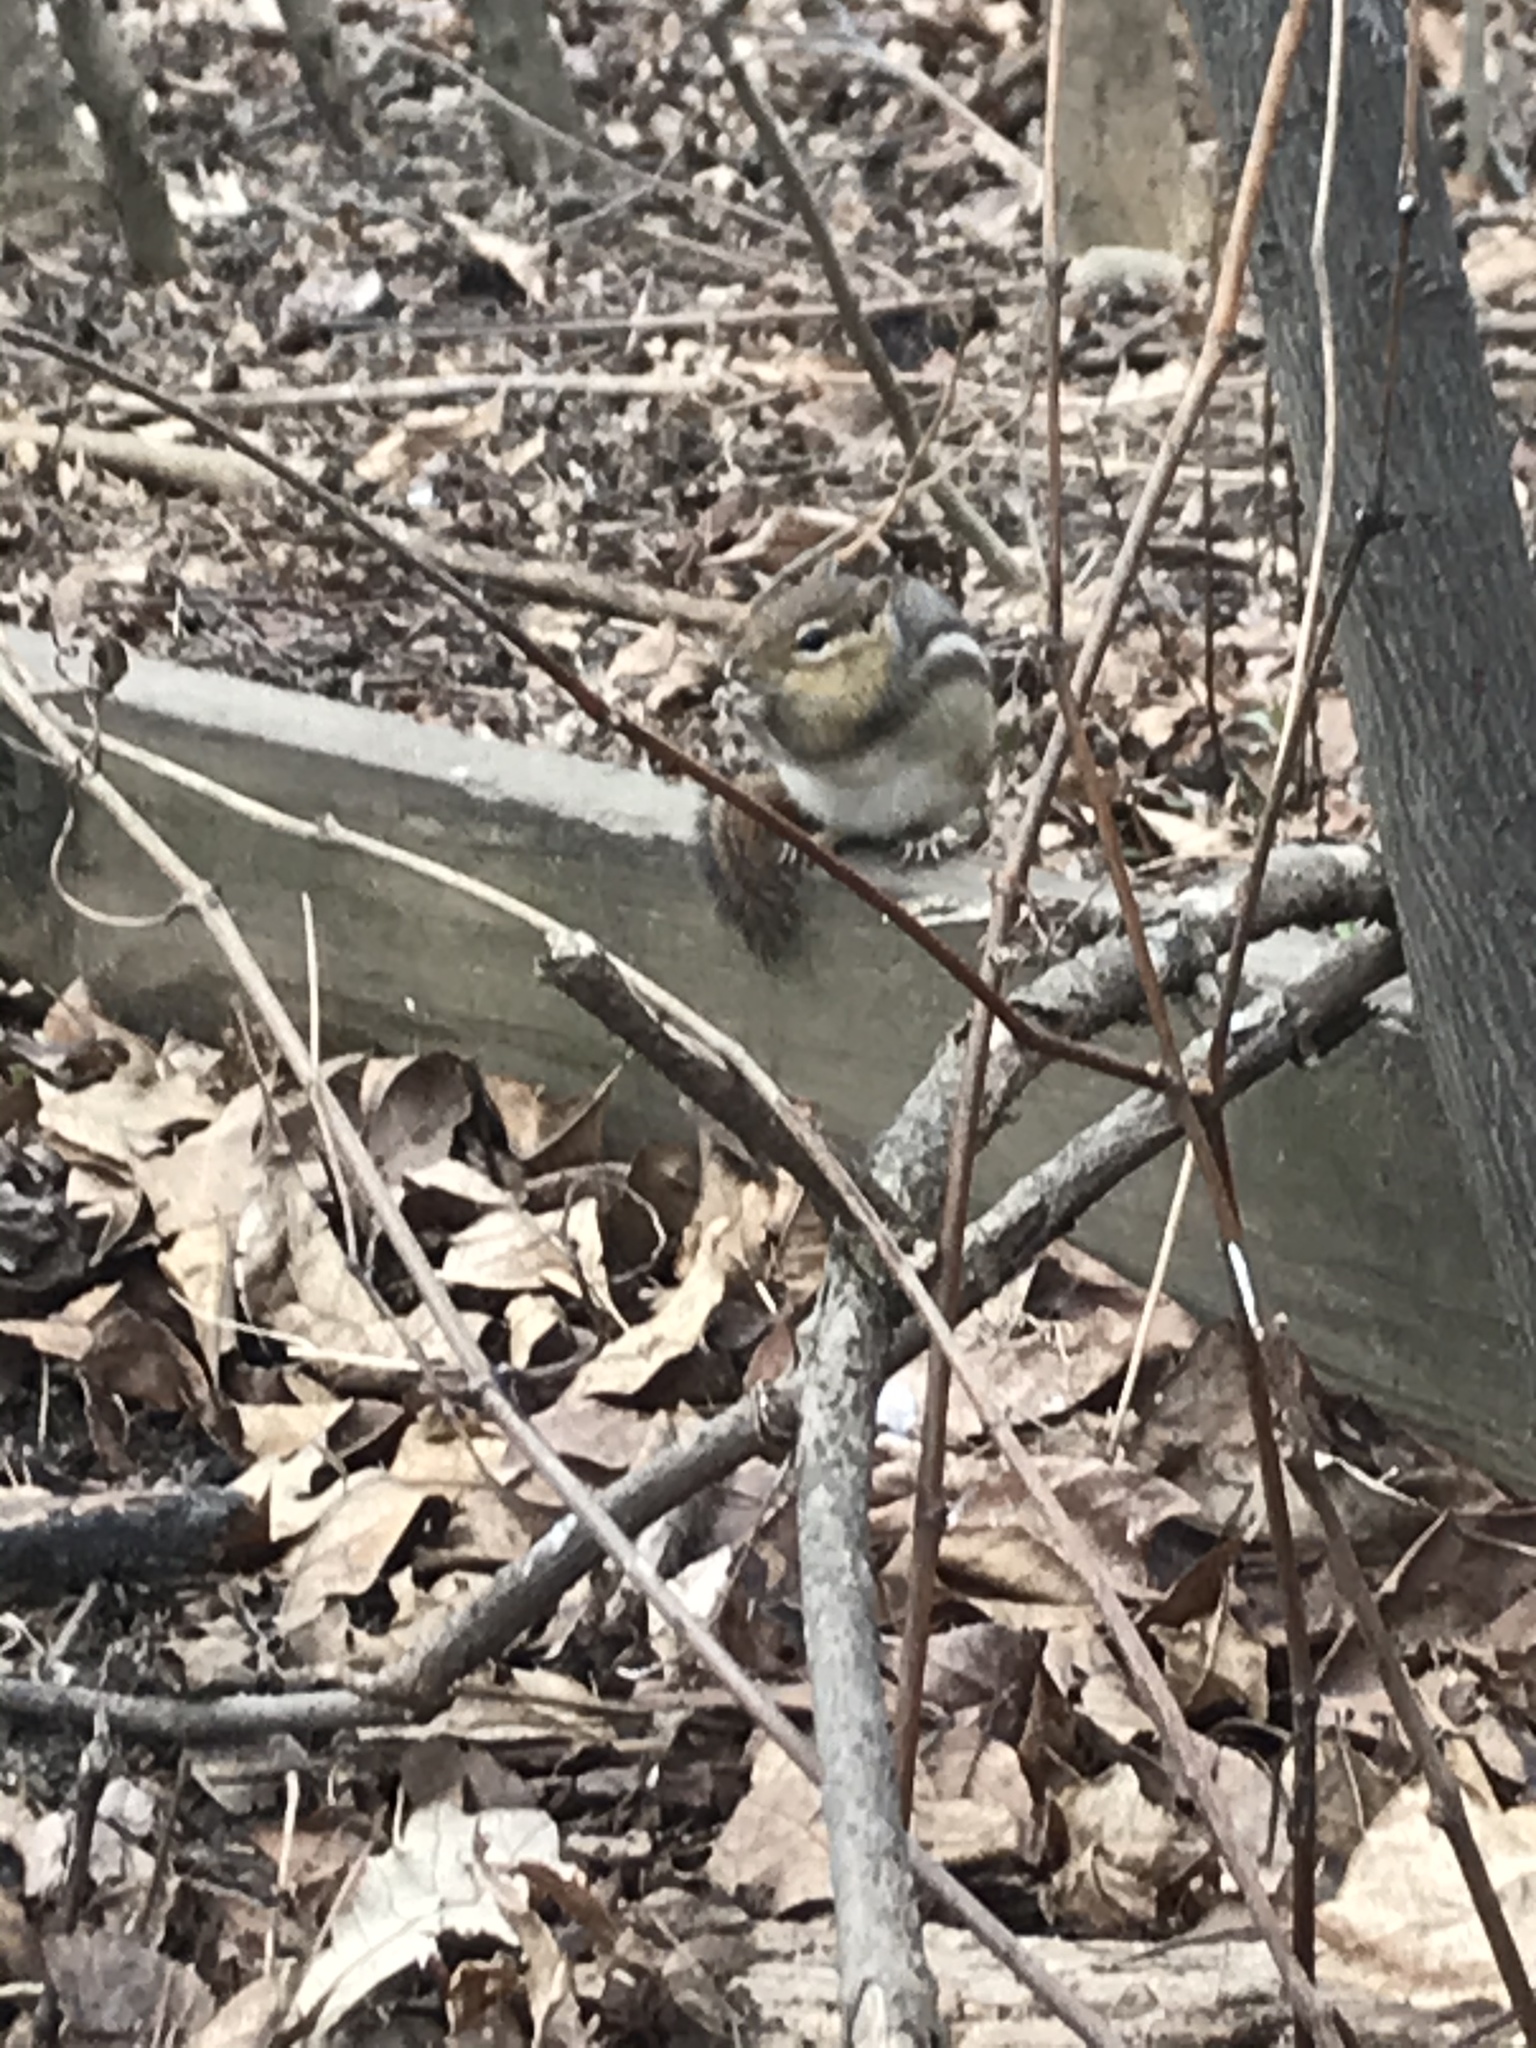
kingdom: Animalia
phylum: Chordata
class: Mammalia
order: Rodentia
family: Sciuridae
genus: Tamias
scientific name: Tamias striatus
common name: Eastern chipmunk
